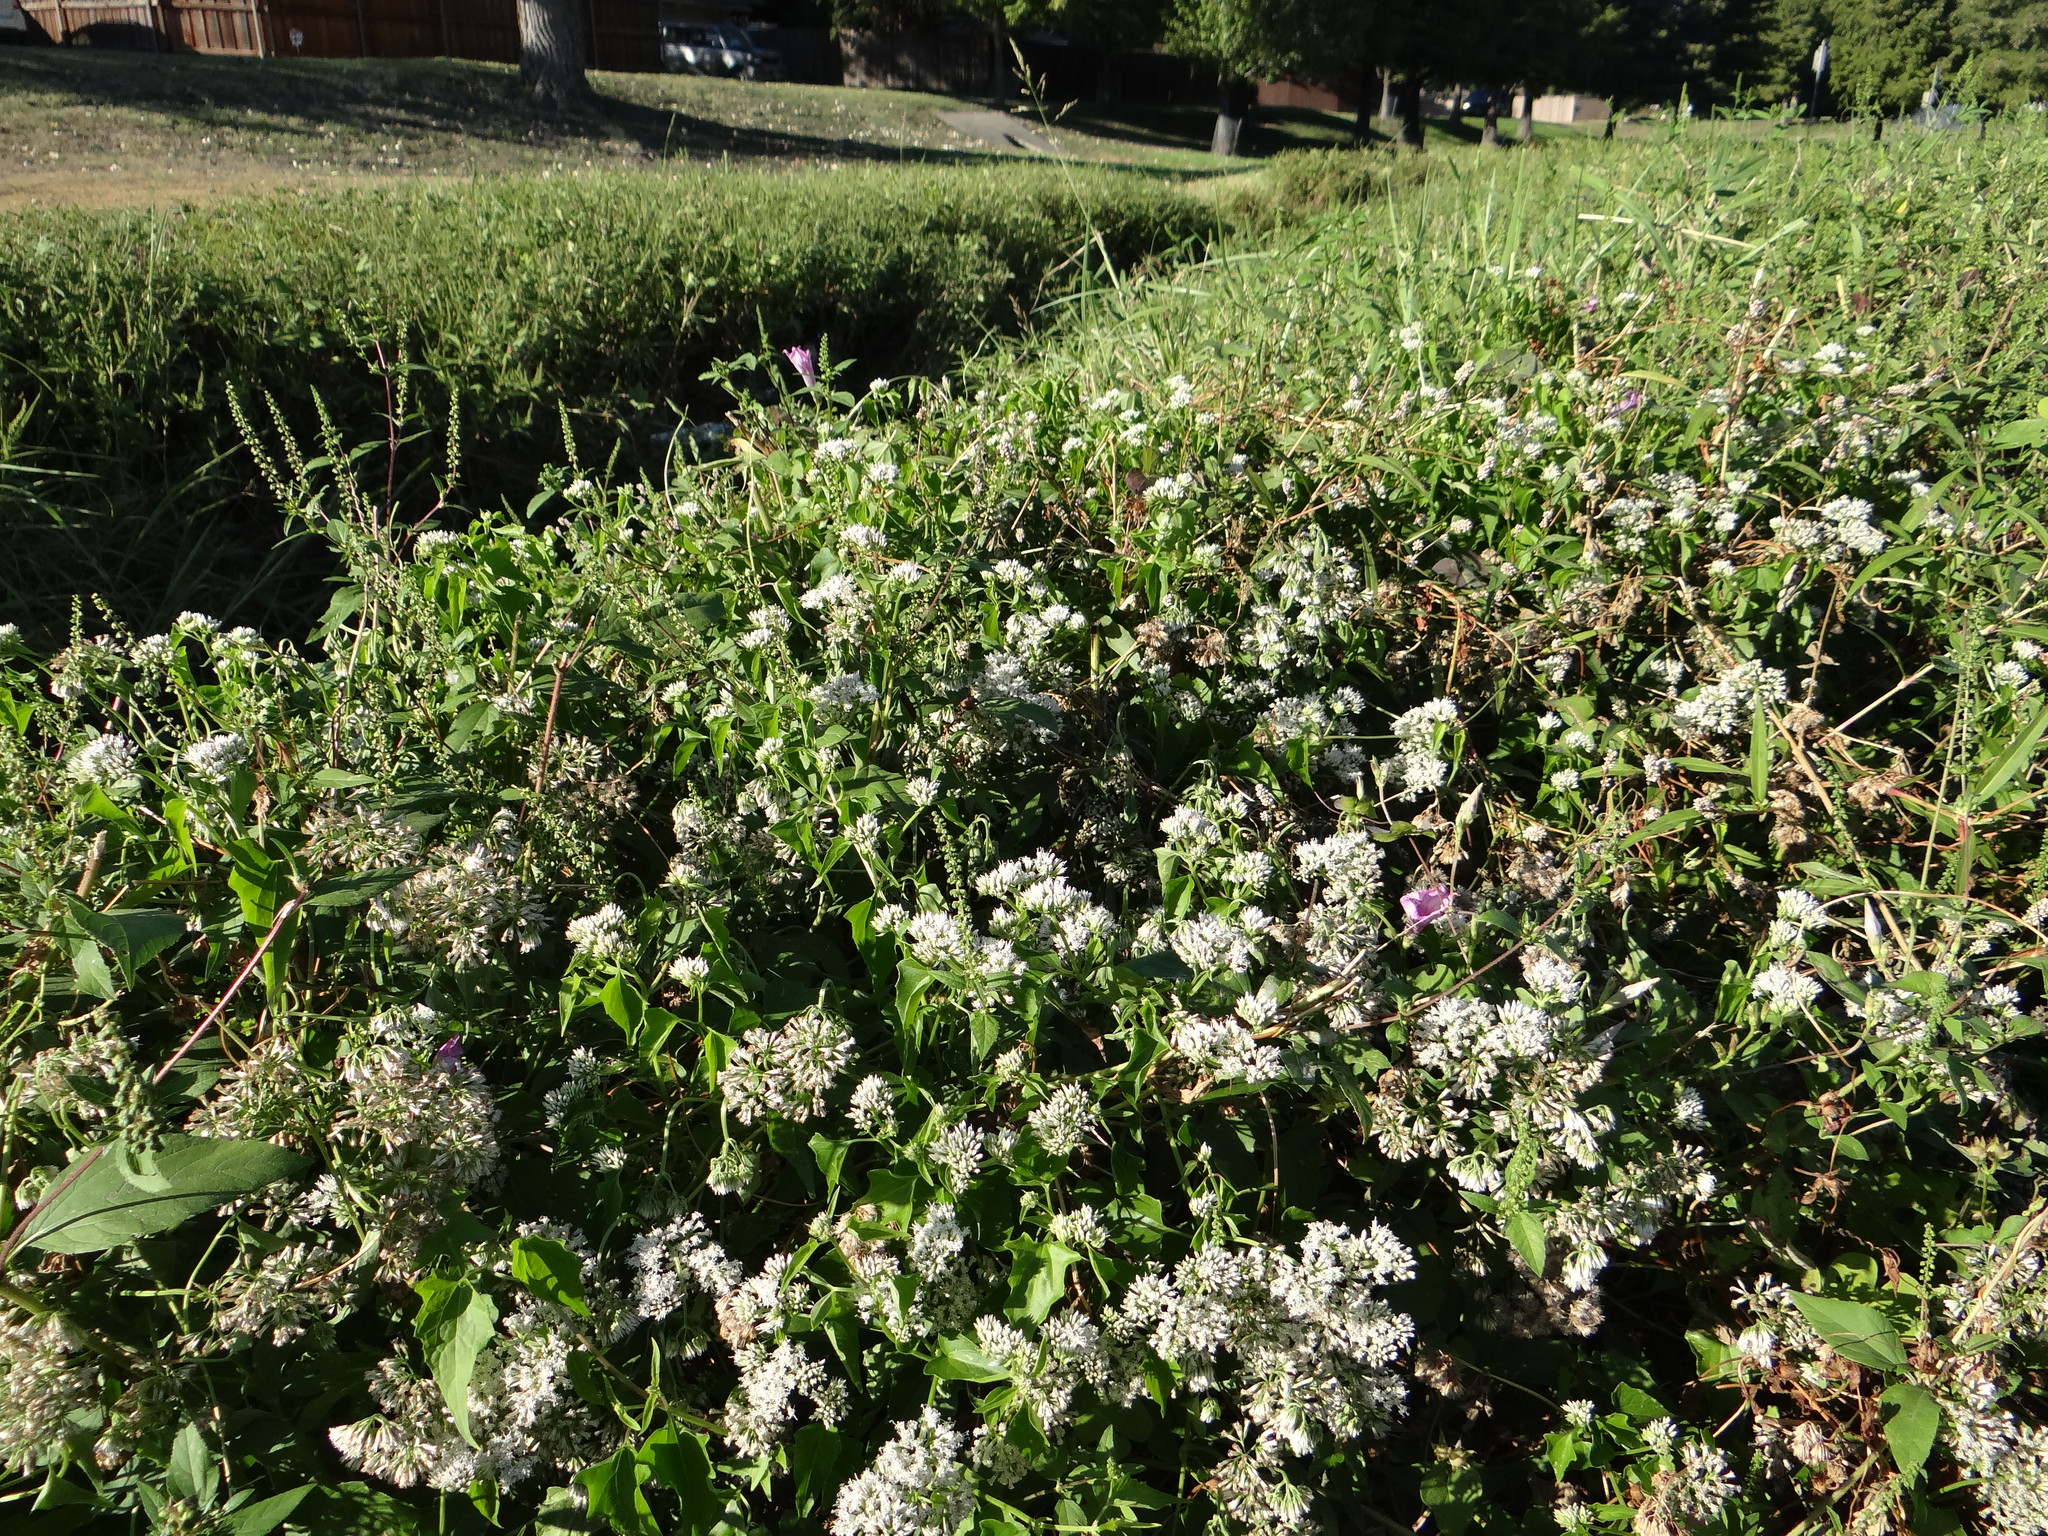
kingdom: Plantae
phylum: Tracheophyta
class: Magnoliopsida
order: Asterales
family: Asteraceae
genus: Mikania
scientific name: Mikania scandens
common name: Climbing hempvine
